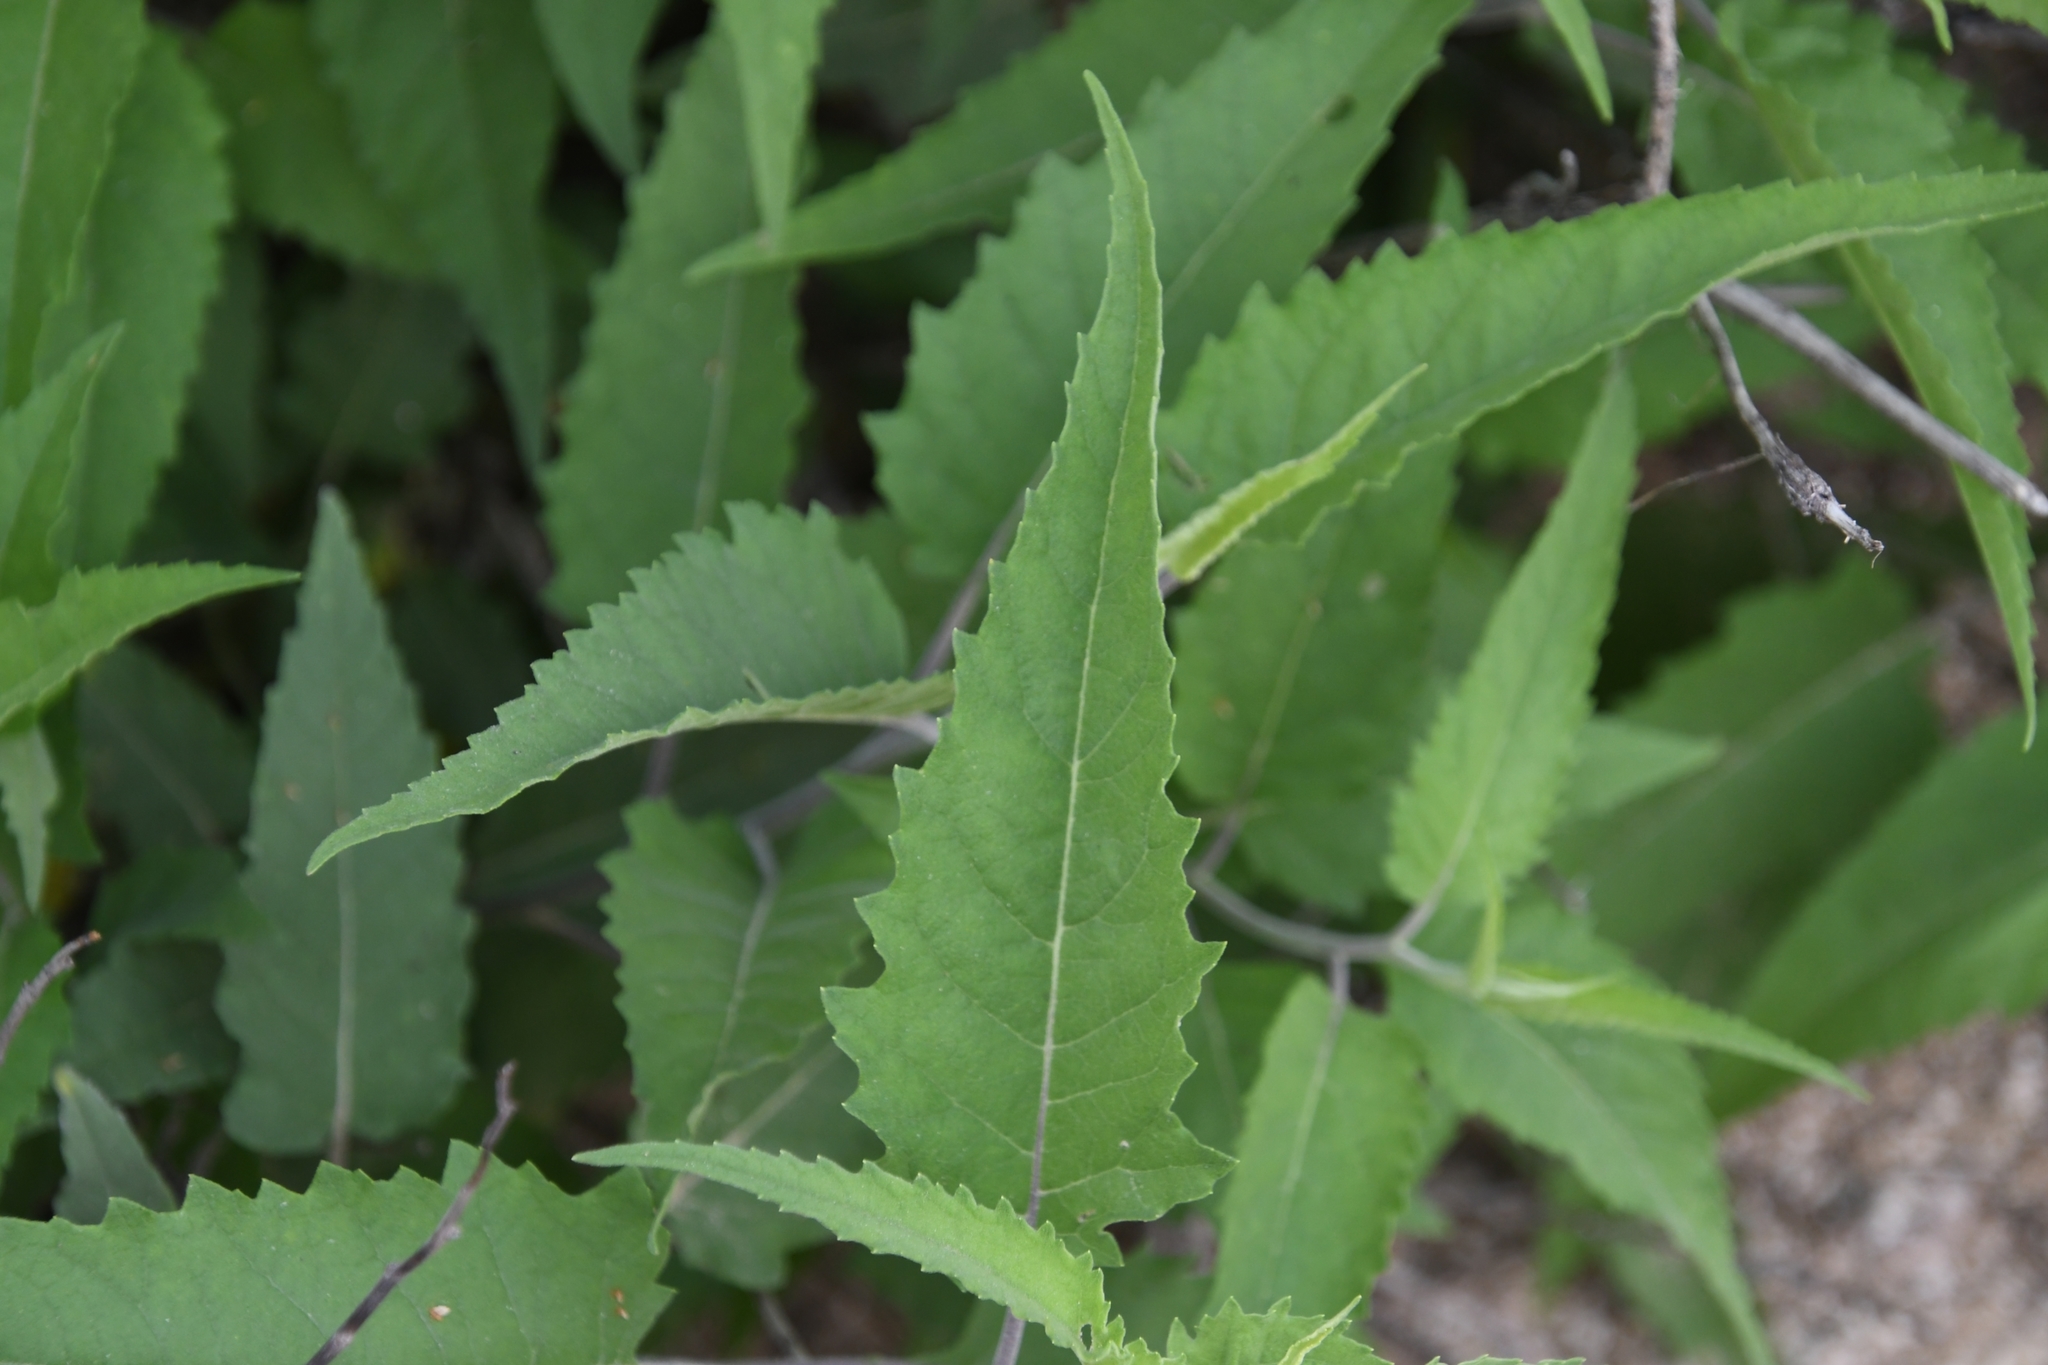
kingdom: Plantae
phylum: Tracheophyta
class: Magnoliopsida
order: Asterales
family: Asteraceae
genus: Ambrosia
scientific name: Ambrosia ambrosioides
